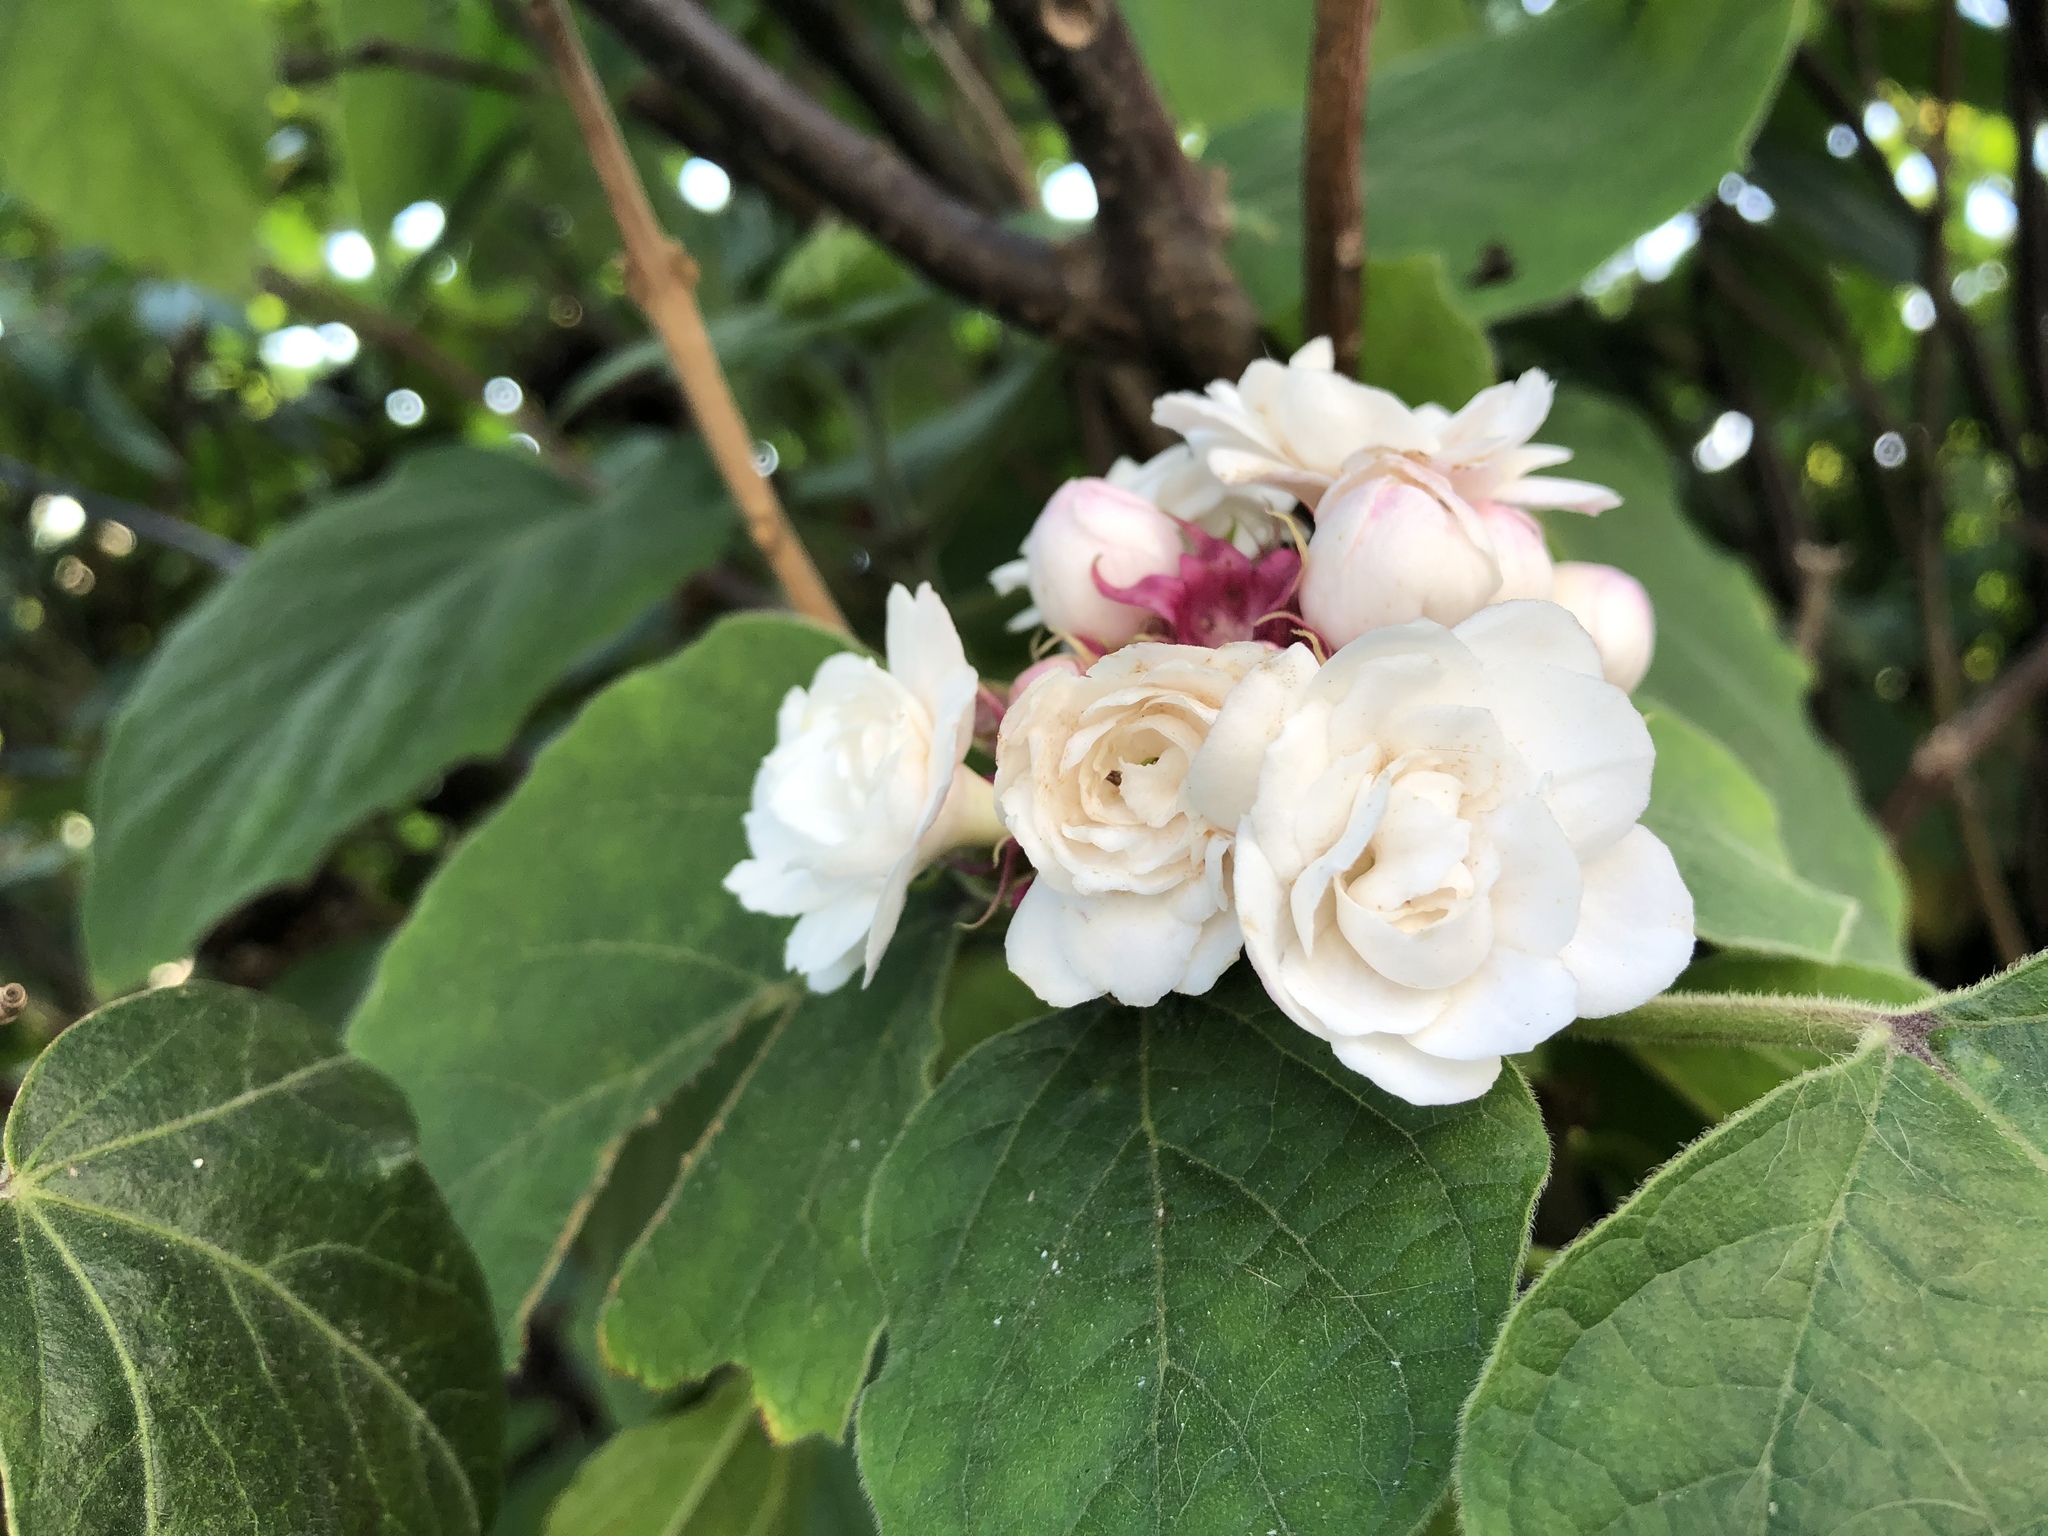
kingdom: Plantae
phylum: Tracheophyta
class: Magnoliopsida
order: Lamiales
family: Lamiaceae
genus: Clerodendrum
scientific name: Clerodendrum chinense
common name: Stickbush
